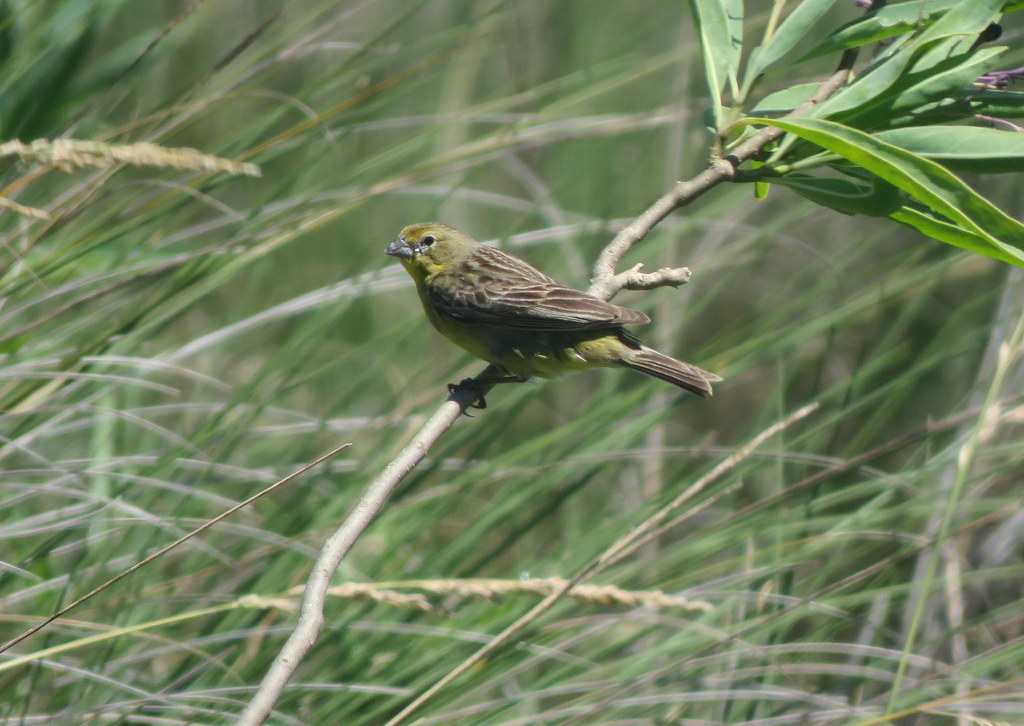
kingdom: Animalia
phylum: Chordata
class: Aves
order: Passeriformes
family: Thraupidae
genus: Sicalis
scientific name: Sicalis luteola
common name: Grassland yellow-finch
